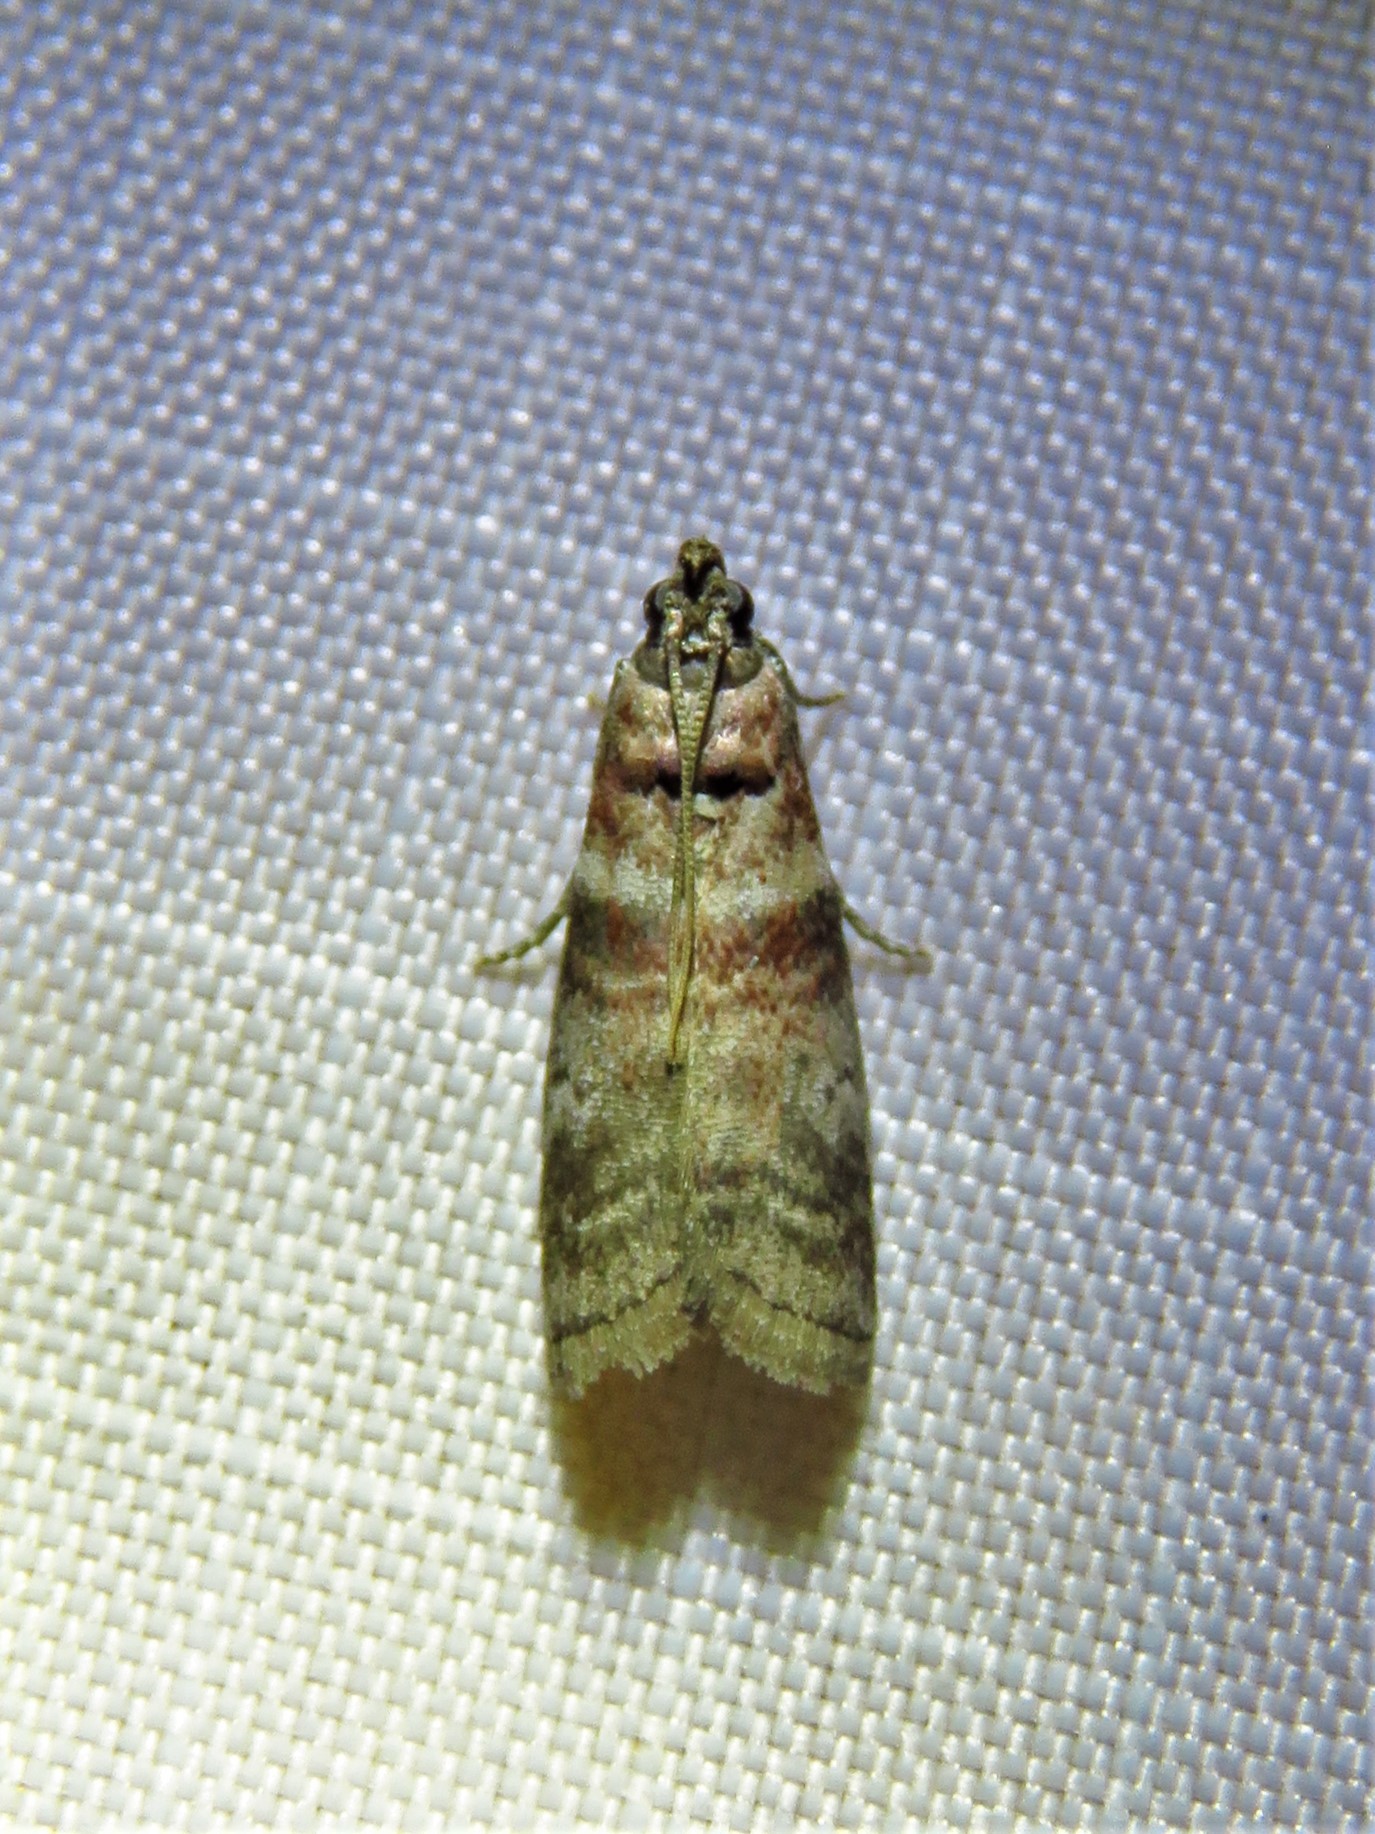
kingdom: Animalia
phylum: Arthropoda
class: Insecta
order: Lepidoptera
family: Pyralidae
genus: Sciota
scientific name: Sciota uvinella
